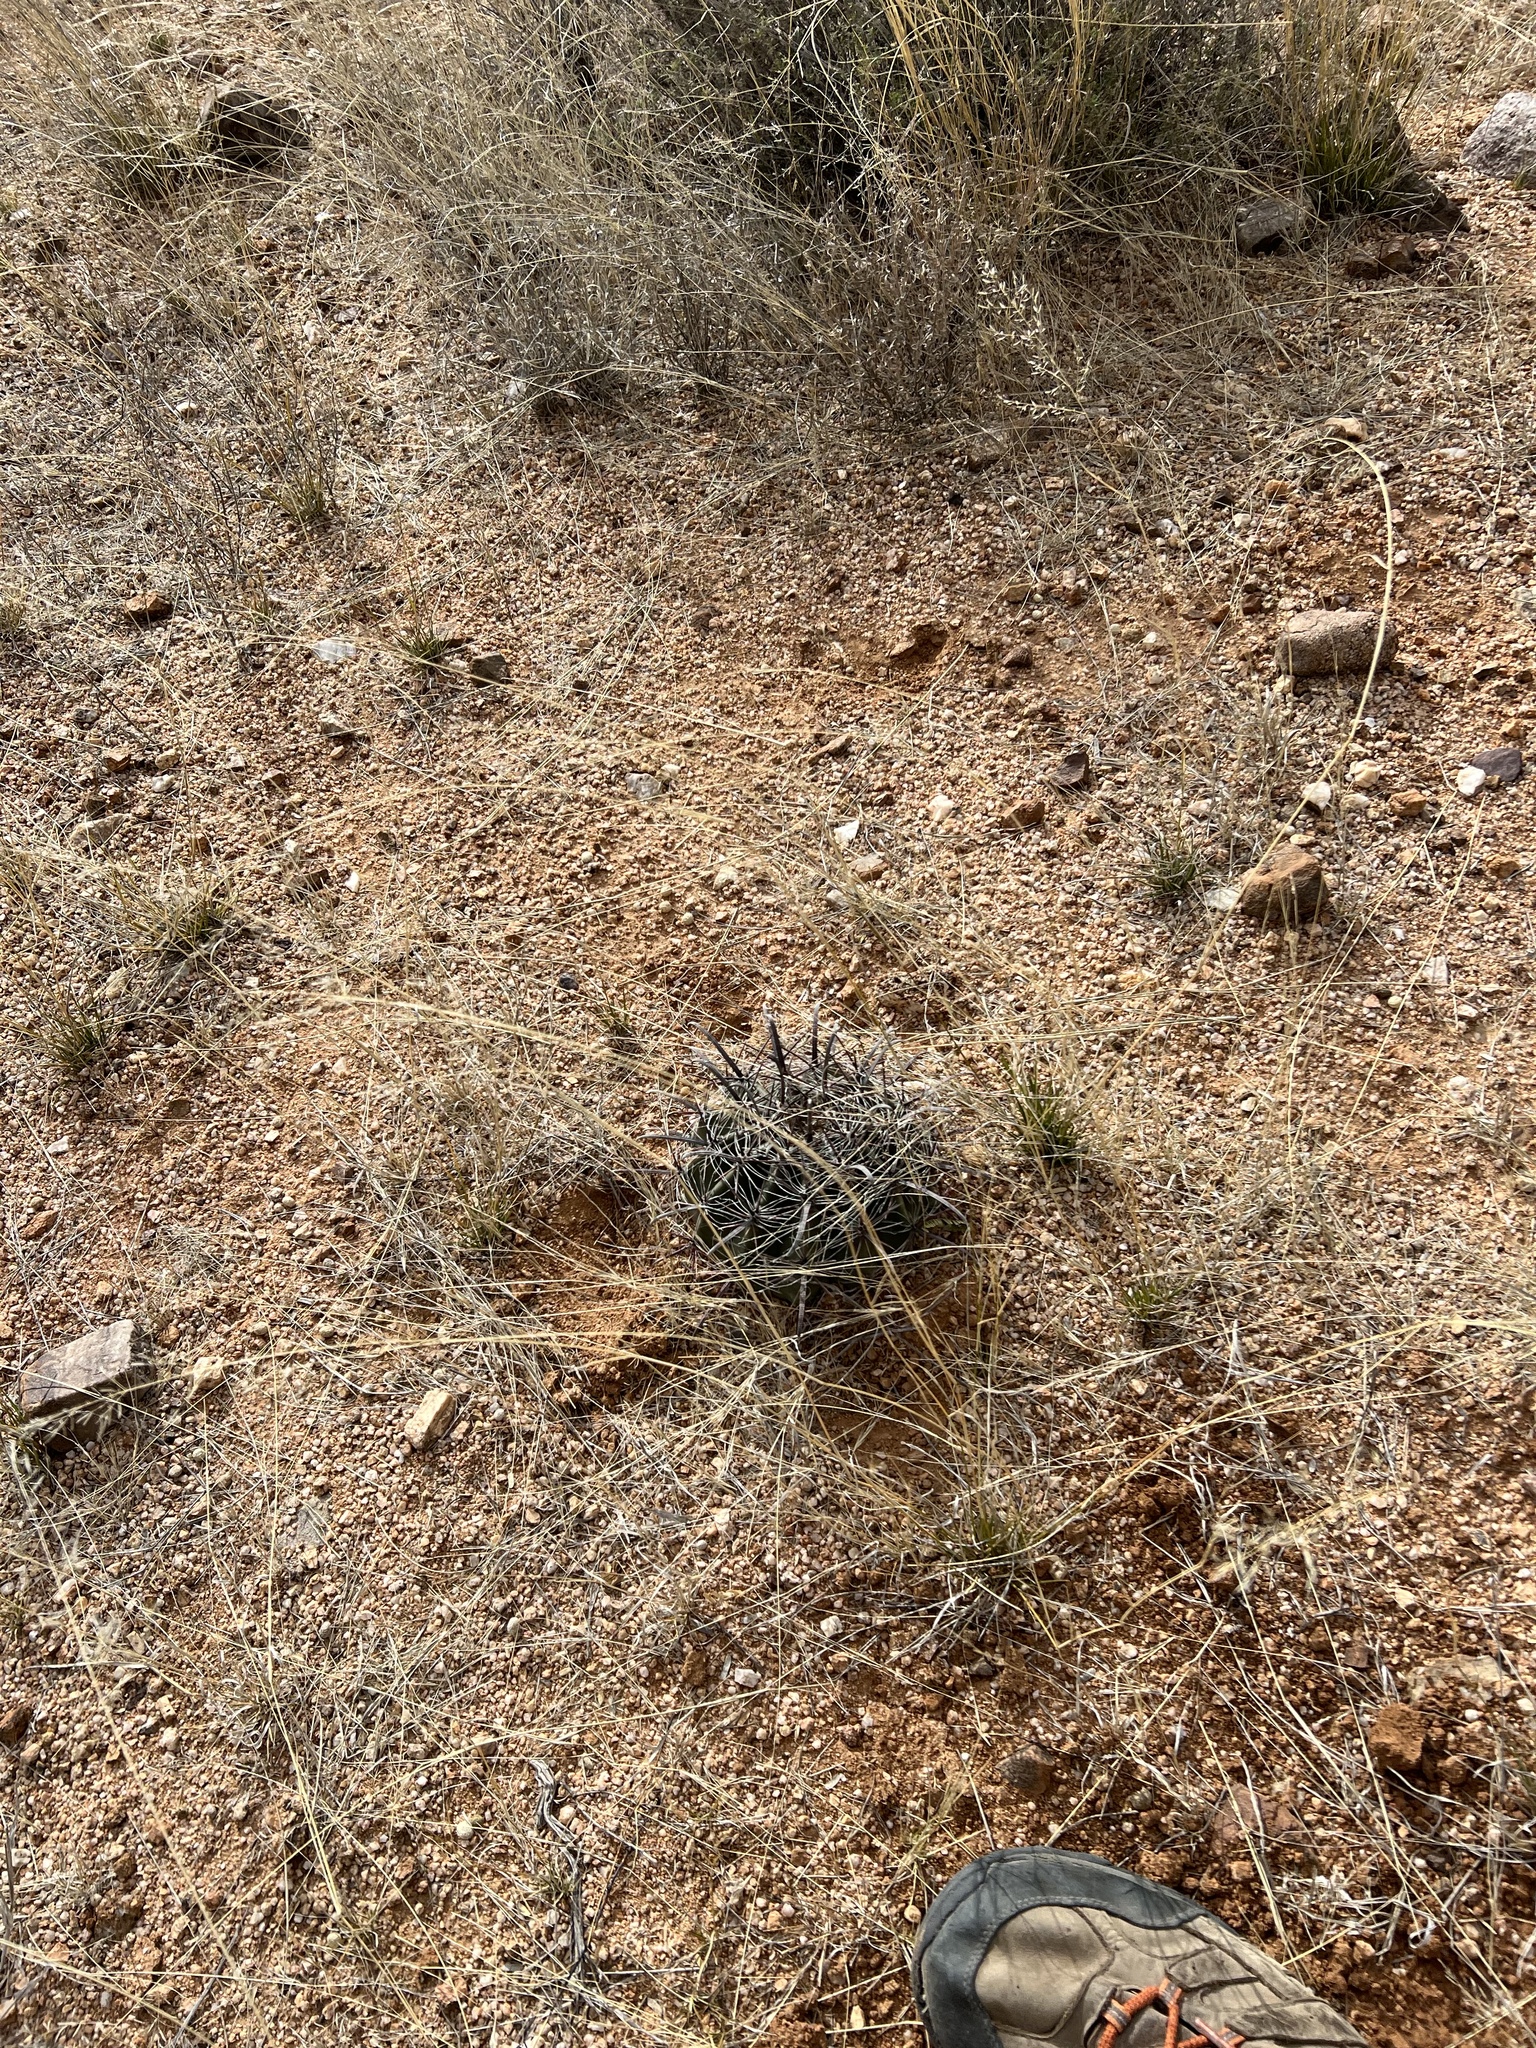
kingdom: Plantae
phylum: Tracheophyta
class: Magnoliopsida
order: Caryophyllales
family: Cactaceae
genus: Ferocactus
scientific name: Ferocactus wislizeni
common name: Candy barrel cactus
